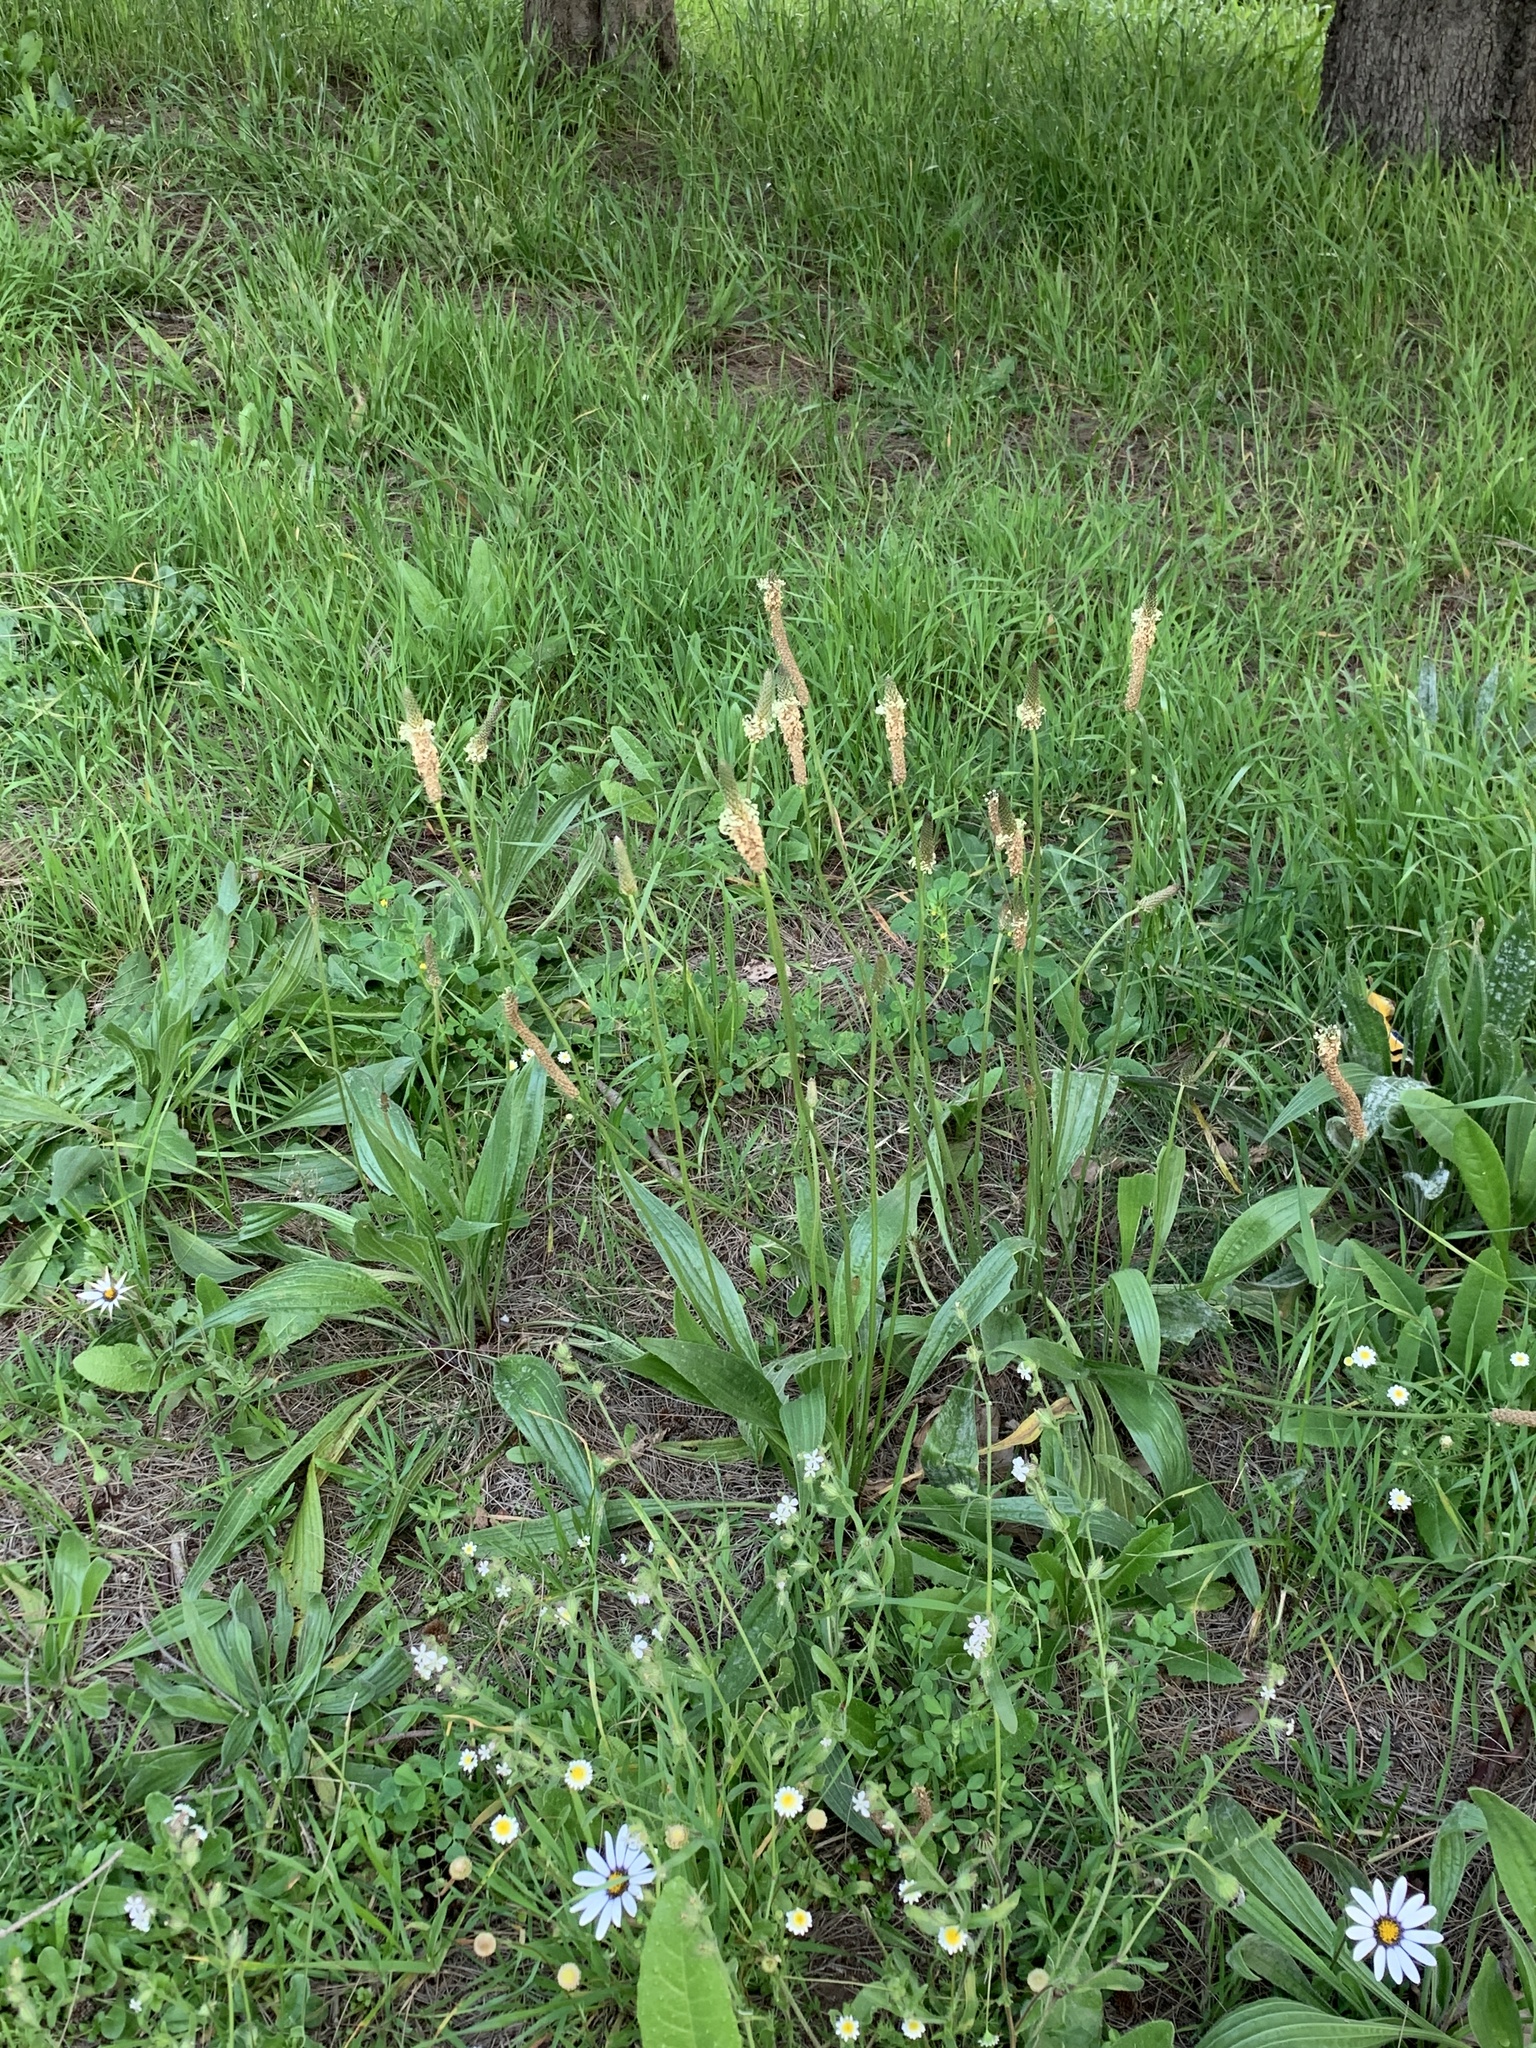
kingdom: Plantae
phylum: Tracheophyta
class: Magnoliopsida
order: Lamiales
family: Plantaginaceae
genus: Plantago
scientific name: Plantago lanceolata
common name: Ribwort plantain
